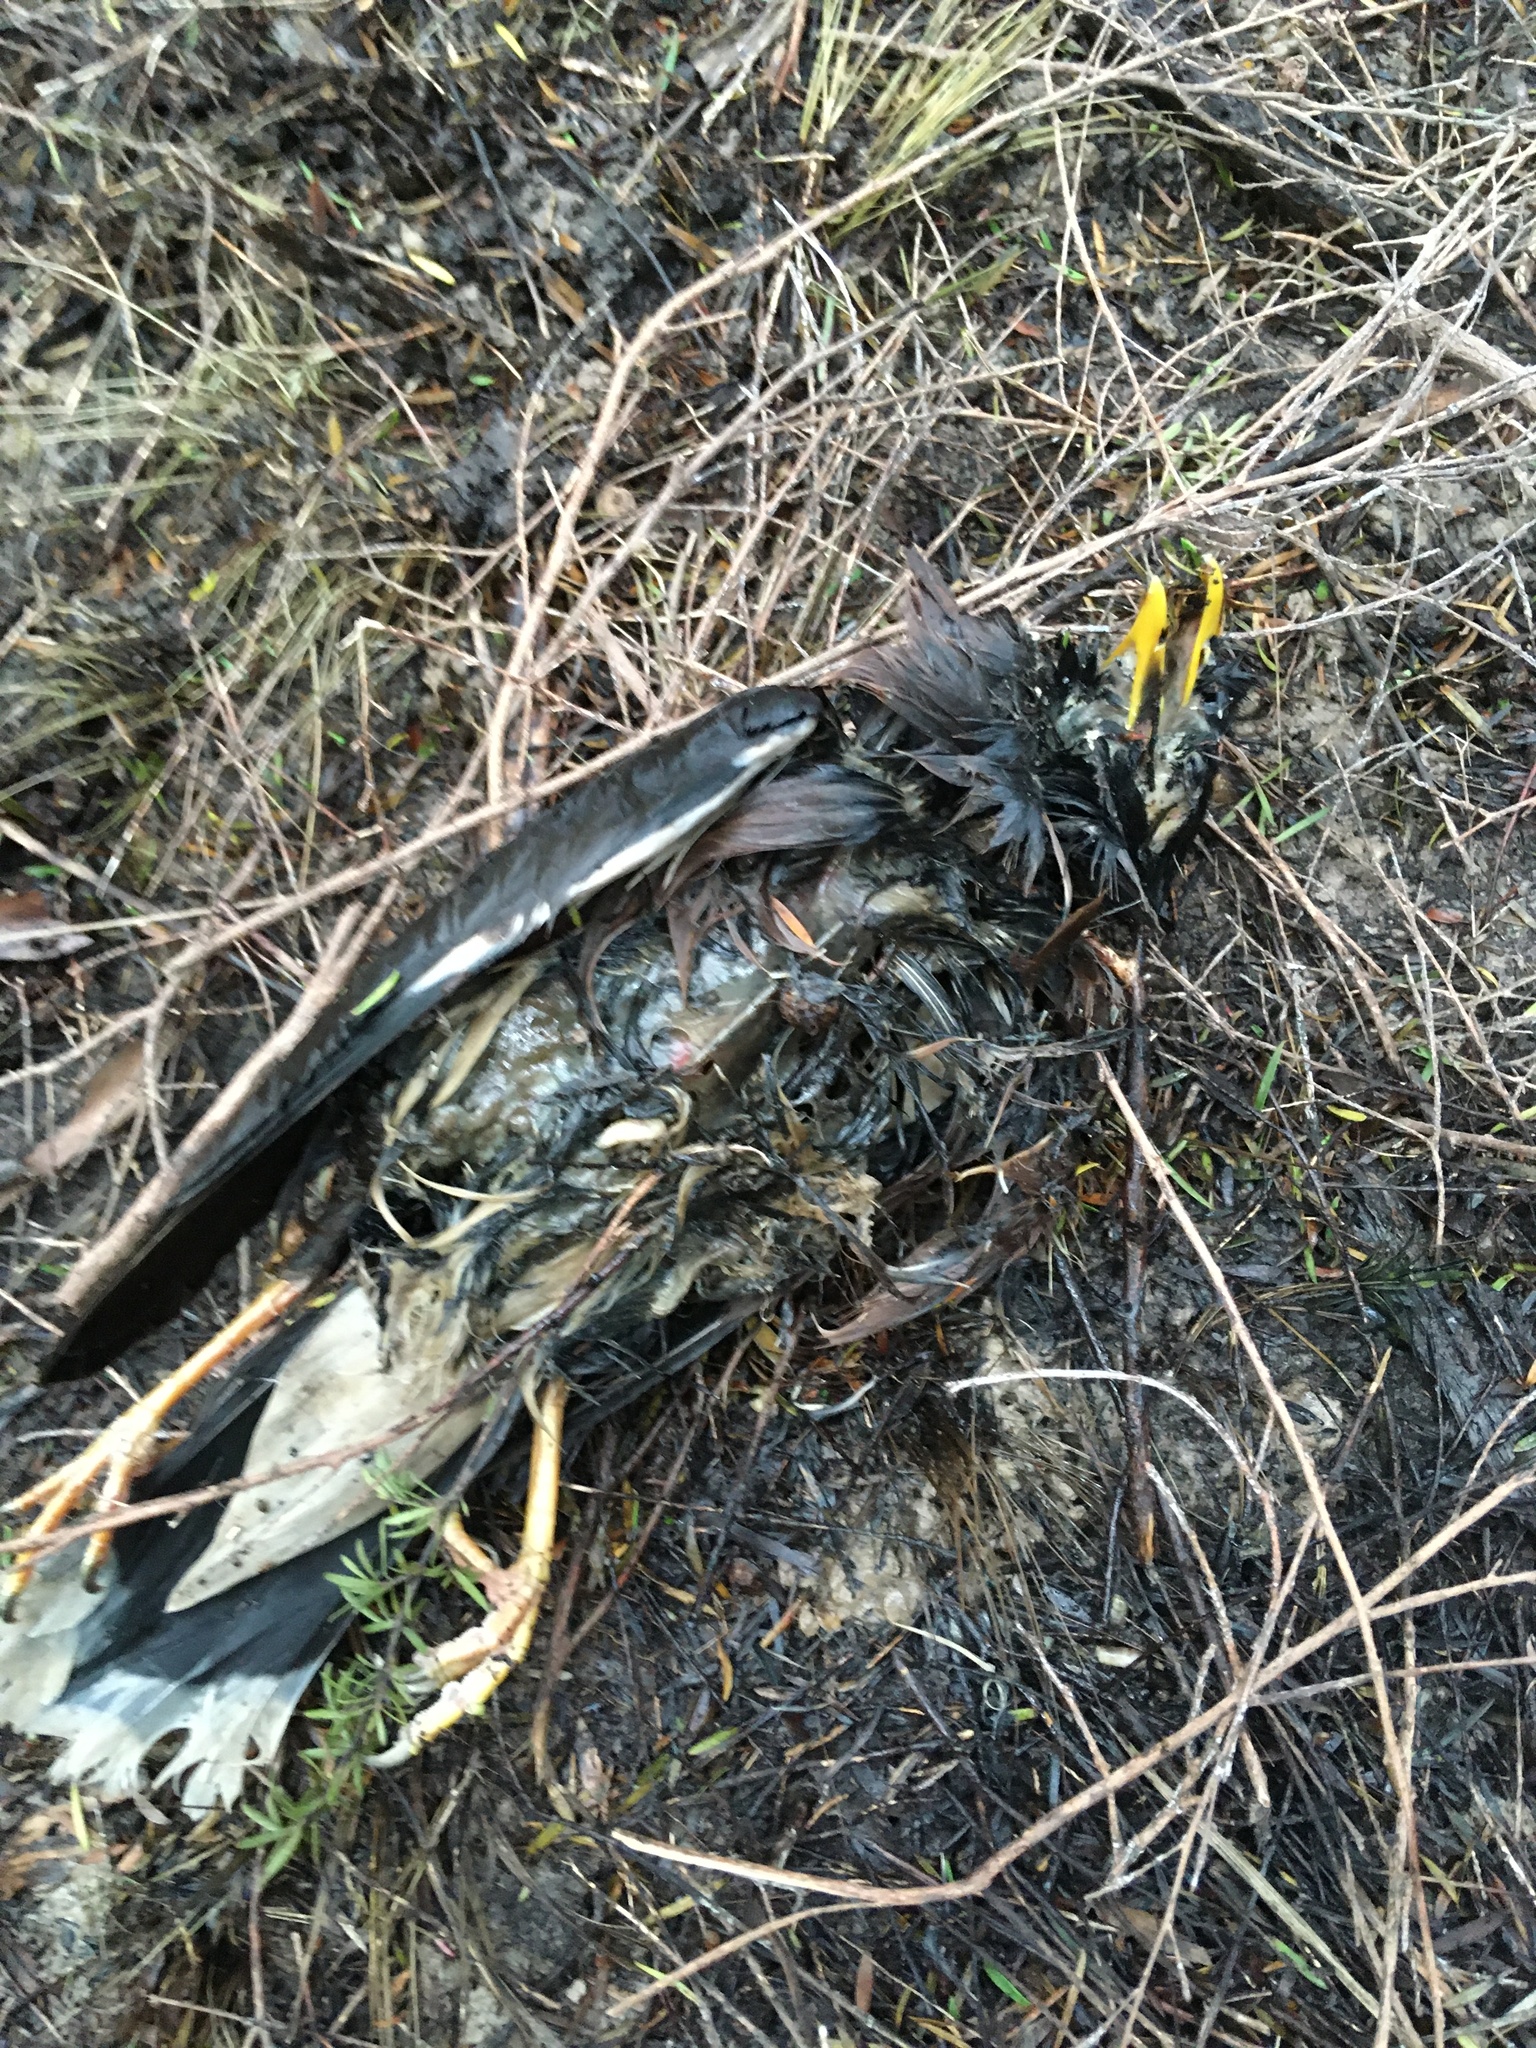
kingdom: Animalia
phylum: Chordata
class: Aves
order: Passeriformes
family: Sturnidae
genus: Acridotheres
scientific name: Acridotheres tristis
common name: Common myna
